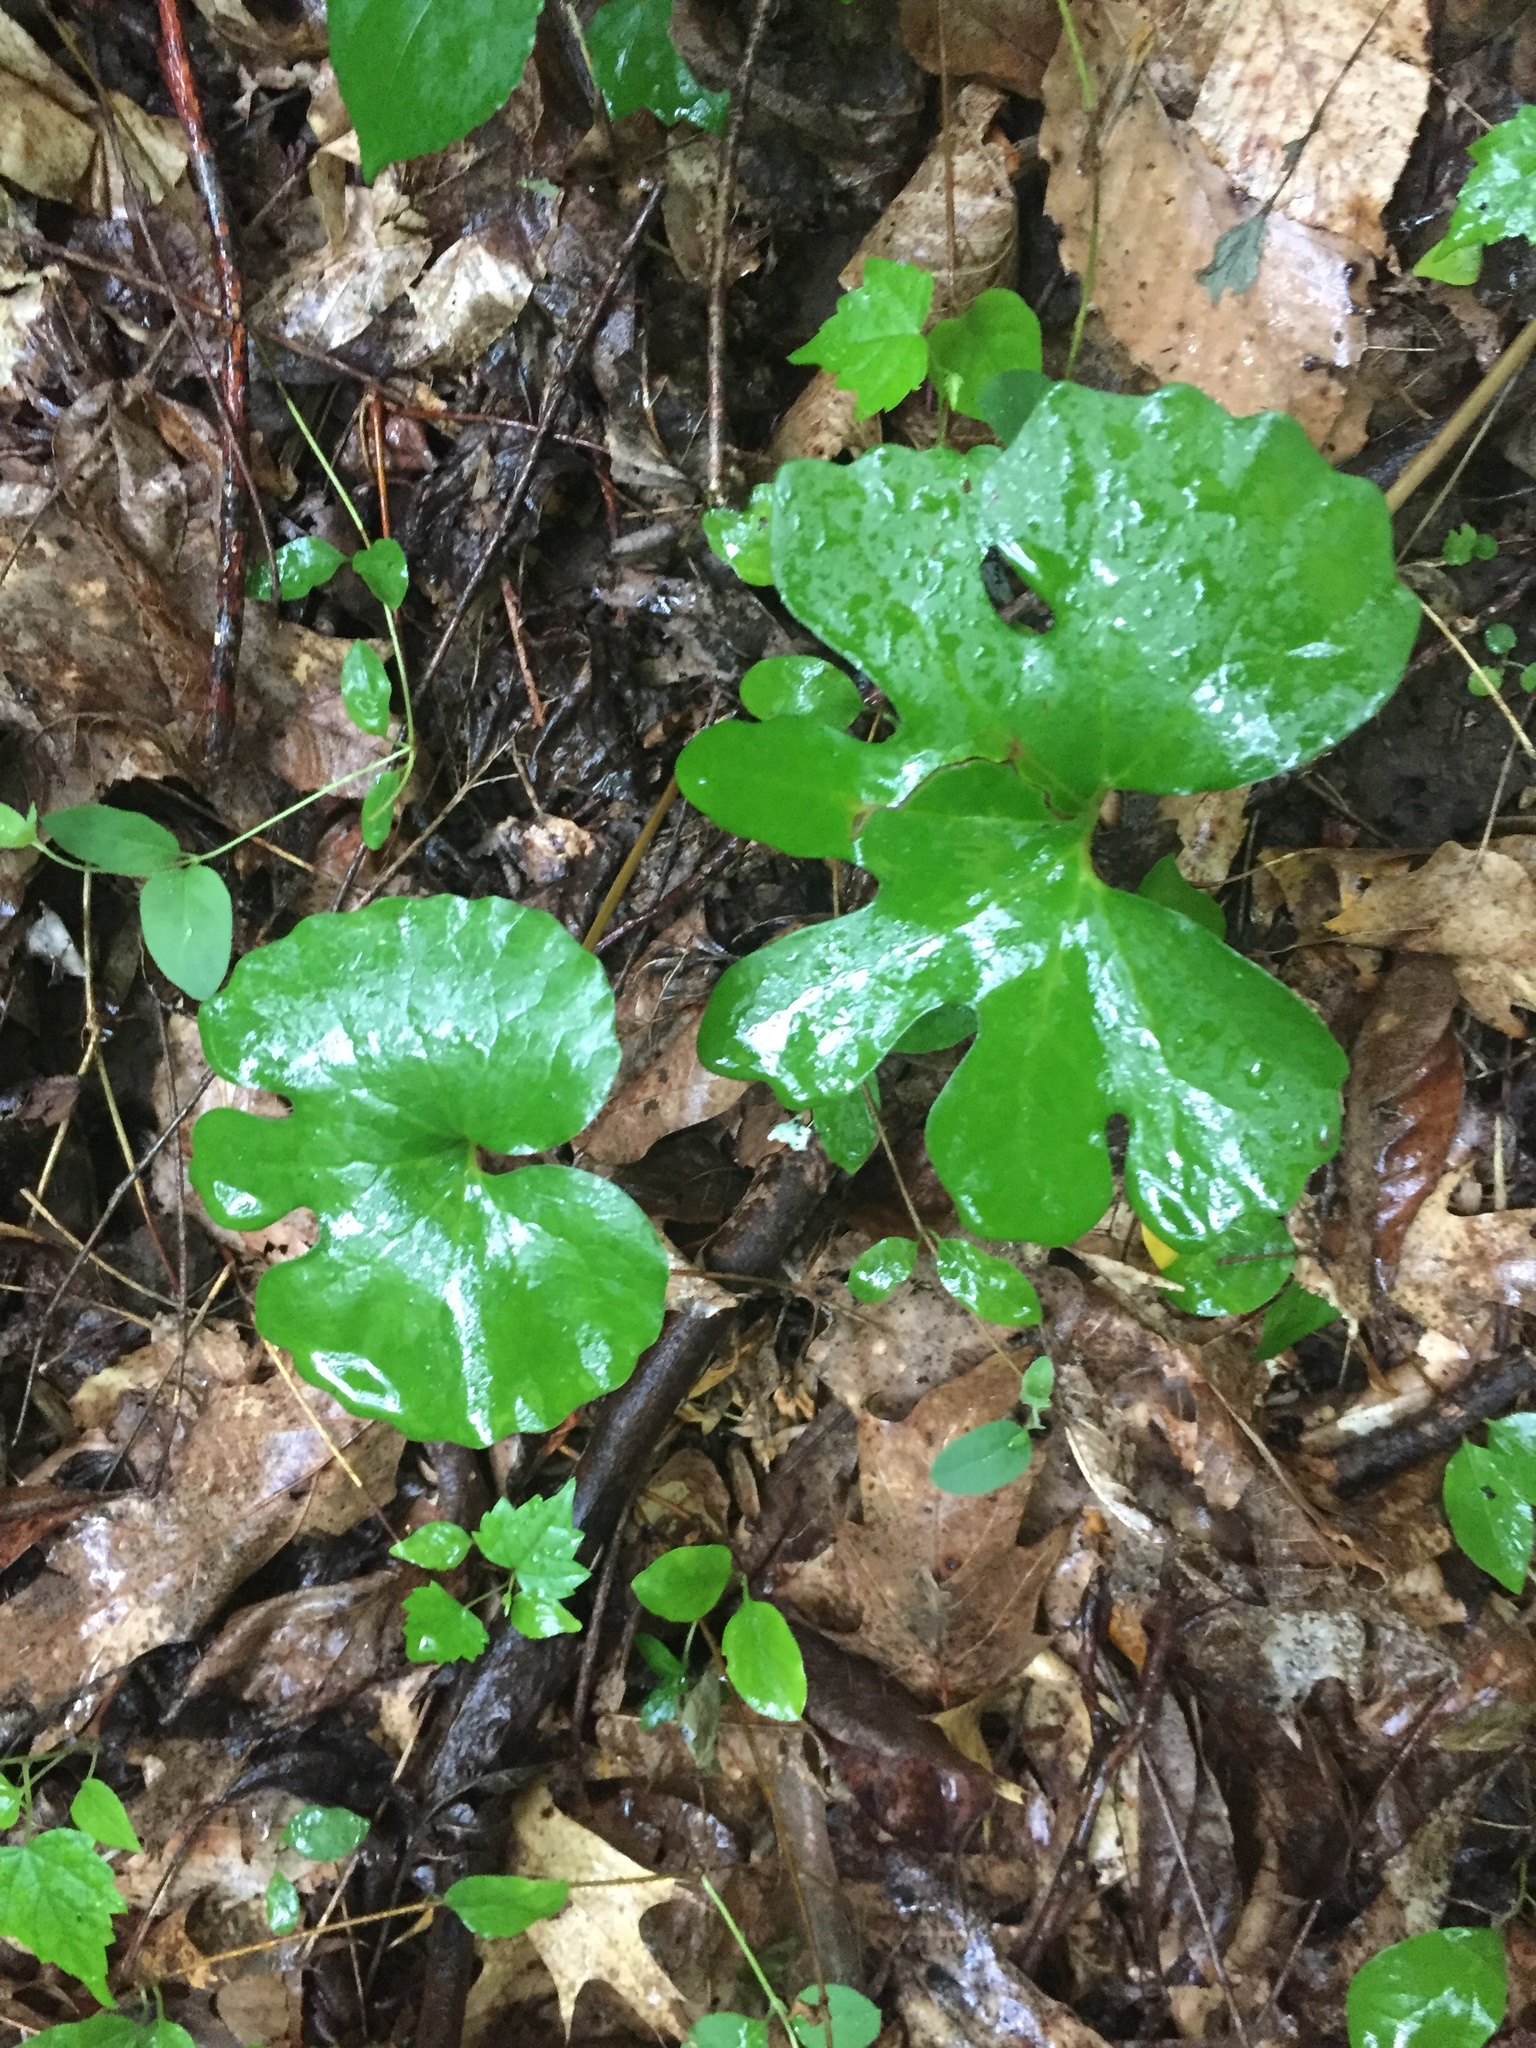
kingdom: Plantae
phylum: Tracheophyta
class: Magnoliopsida
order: Ranunculales
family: Papaveraceae
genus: Sanguinaria
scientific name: Sanguinaria canadensis
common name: Bloodroot
